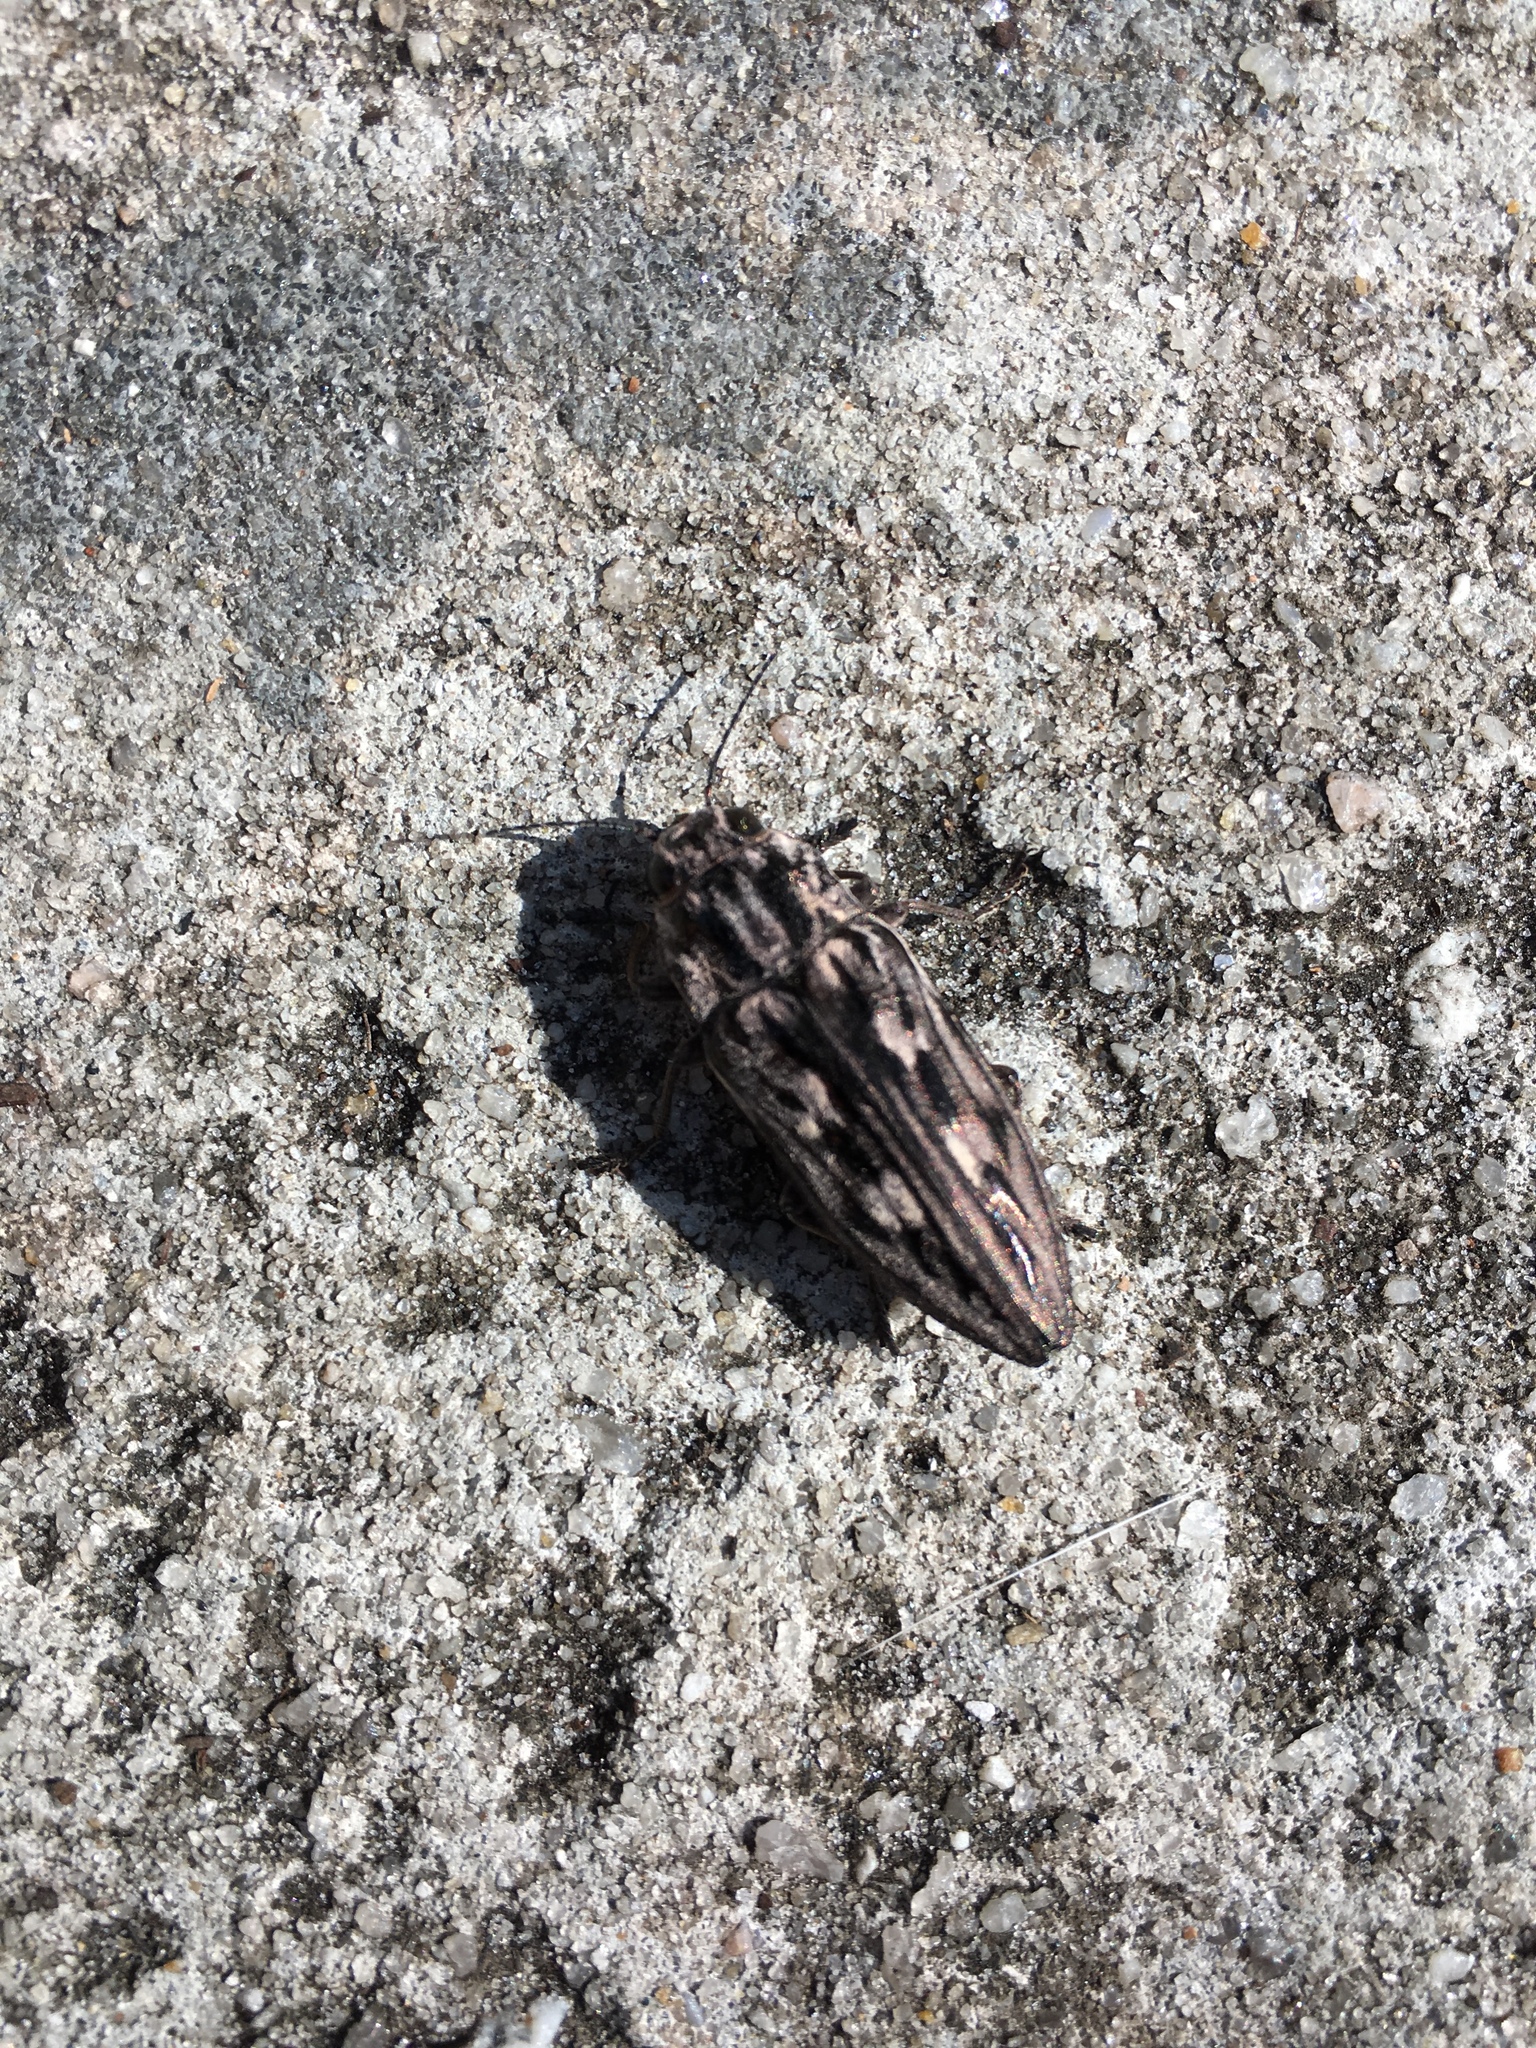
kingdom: Animalia
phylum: Arthropoda
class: Insecta
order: Coleoptera
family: Buprestidae
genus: Chalcophora
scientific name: Chalcophora virginiensis
